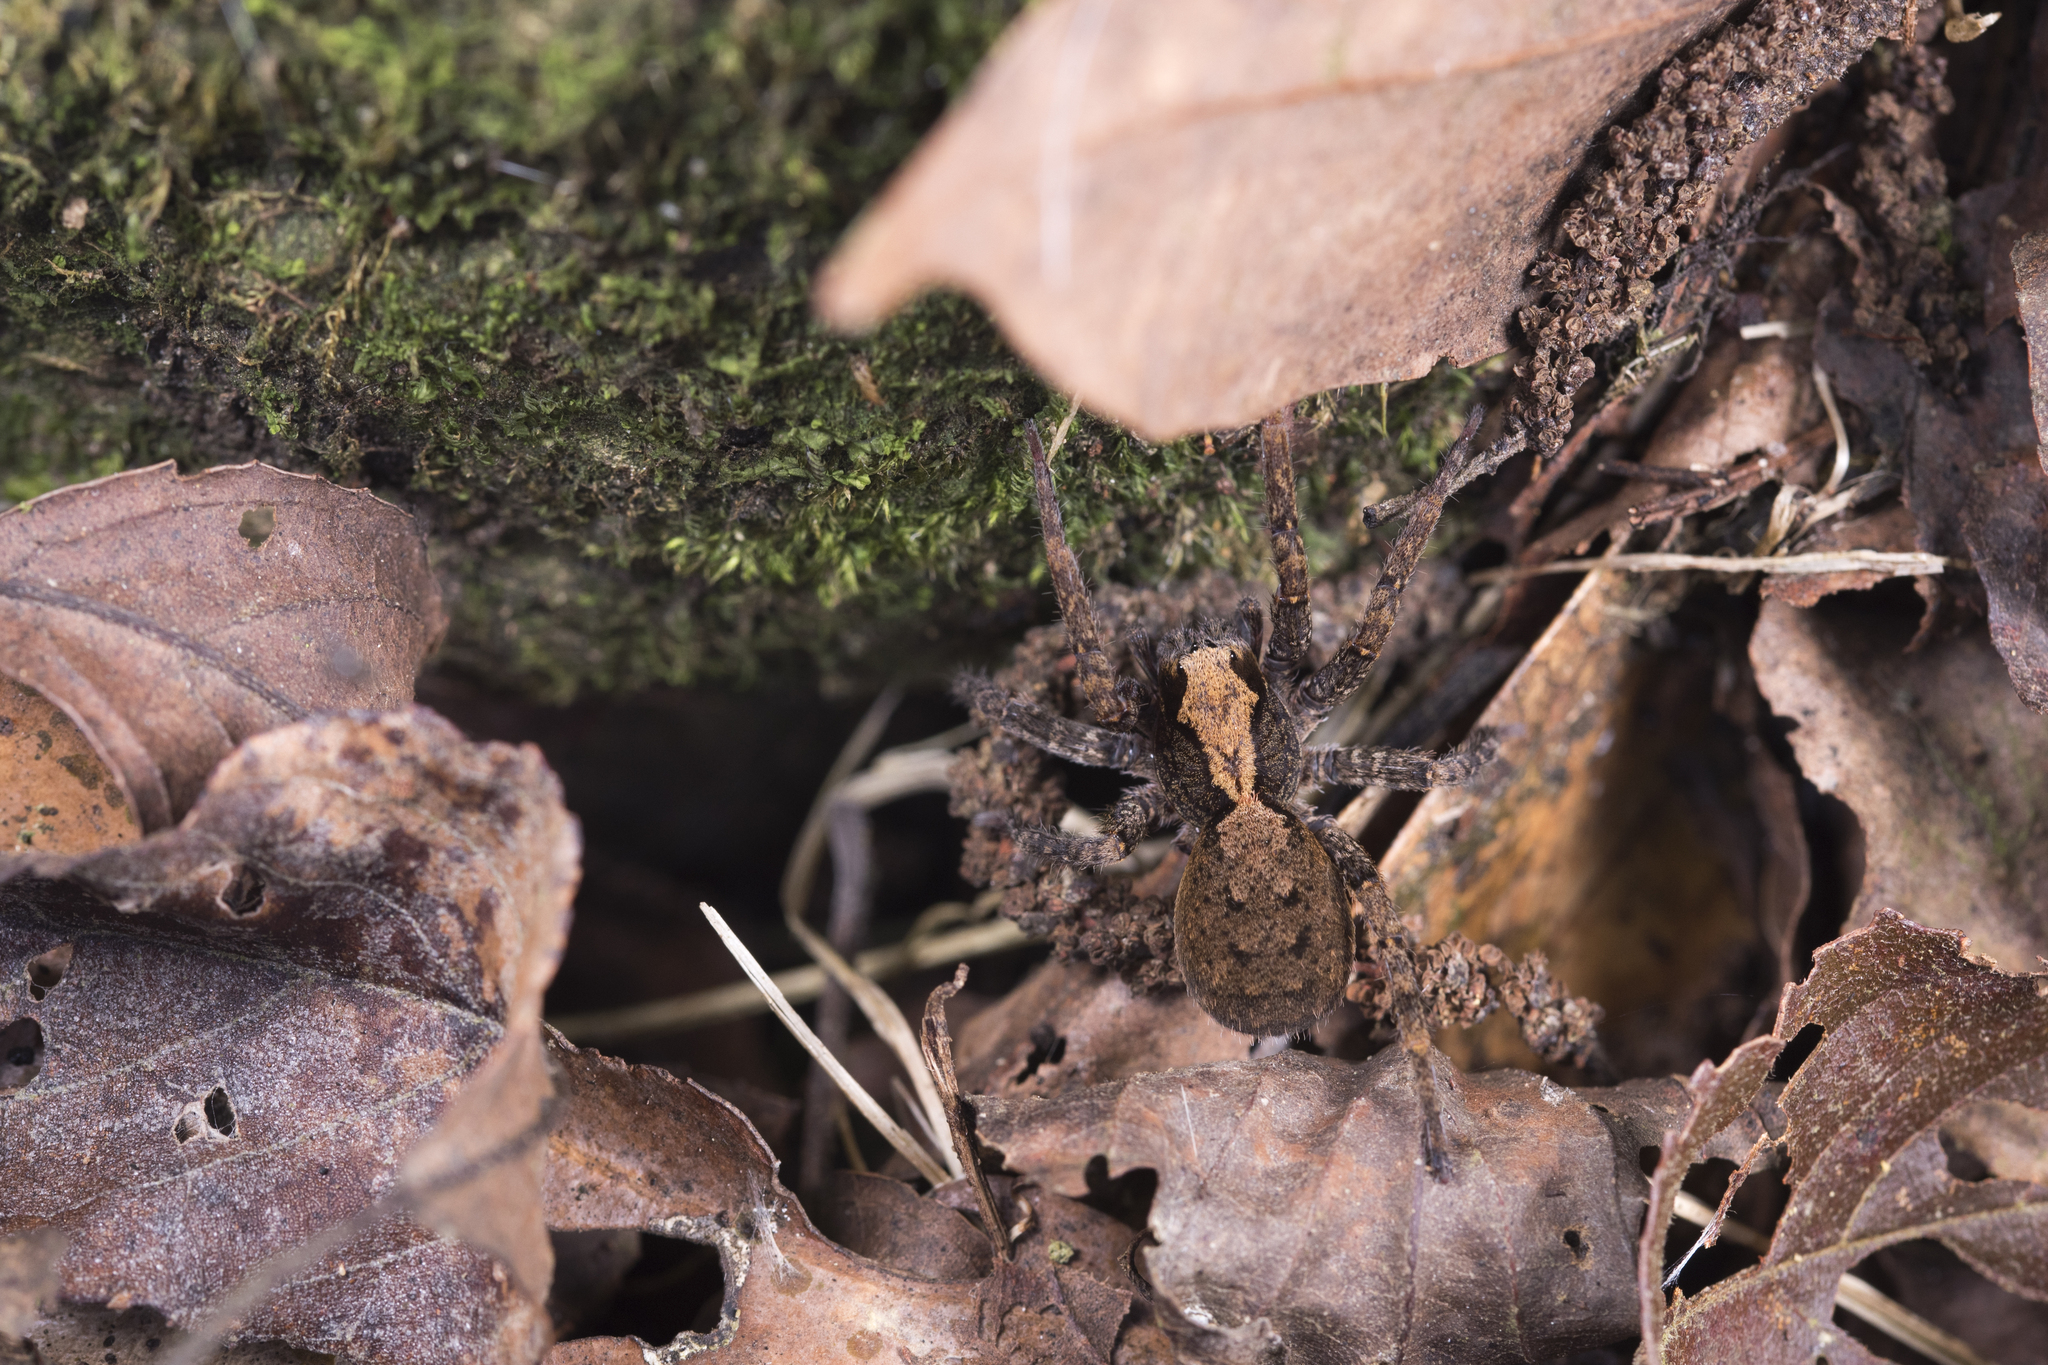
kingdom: Animalia
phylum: Arthropoda
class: Arachnida
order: Araneae
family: Ctenidae
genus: Ctenus
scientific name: Ctenus yaeyamensis
